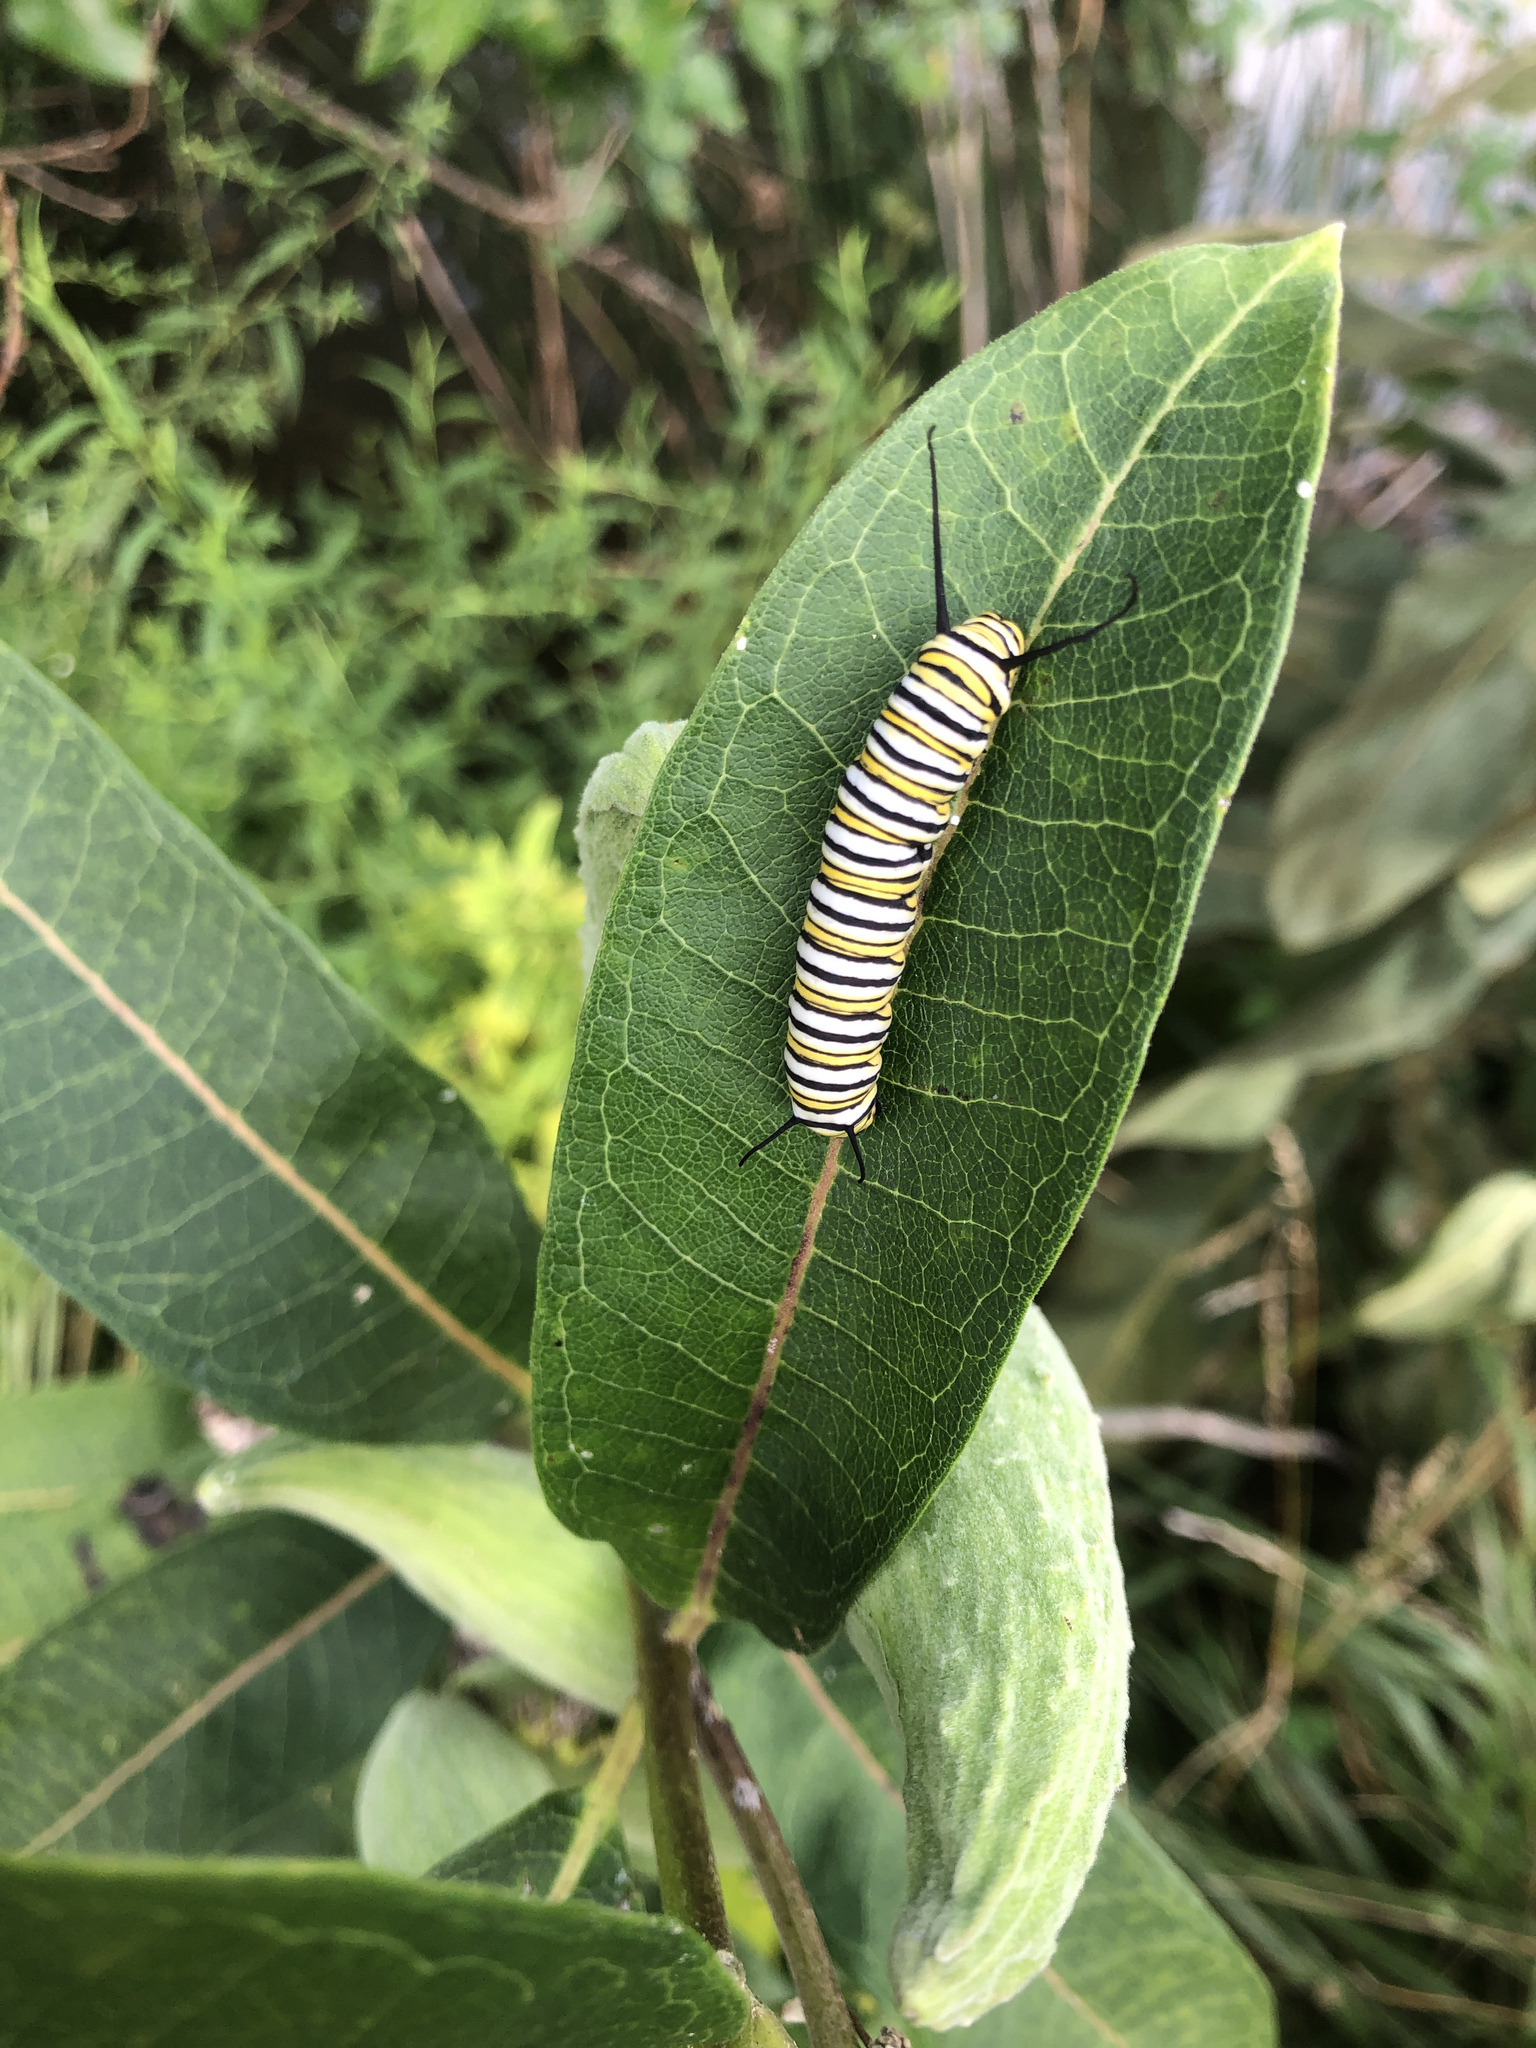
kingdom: Animalia
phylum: Arthropoda
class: Insecta
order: Lepidoptera
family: Nymphalidae
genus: Danaus
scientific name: Danaus plexippus
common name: Monarch
